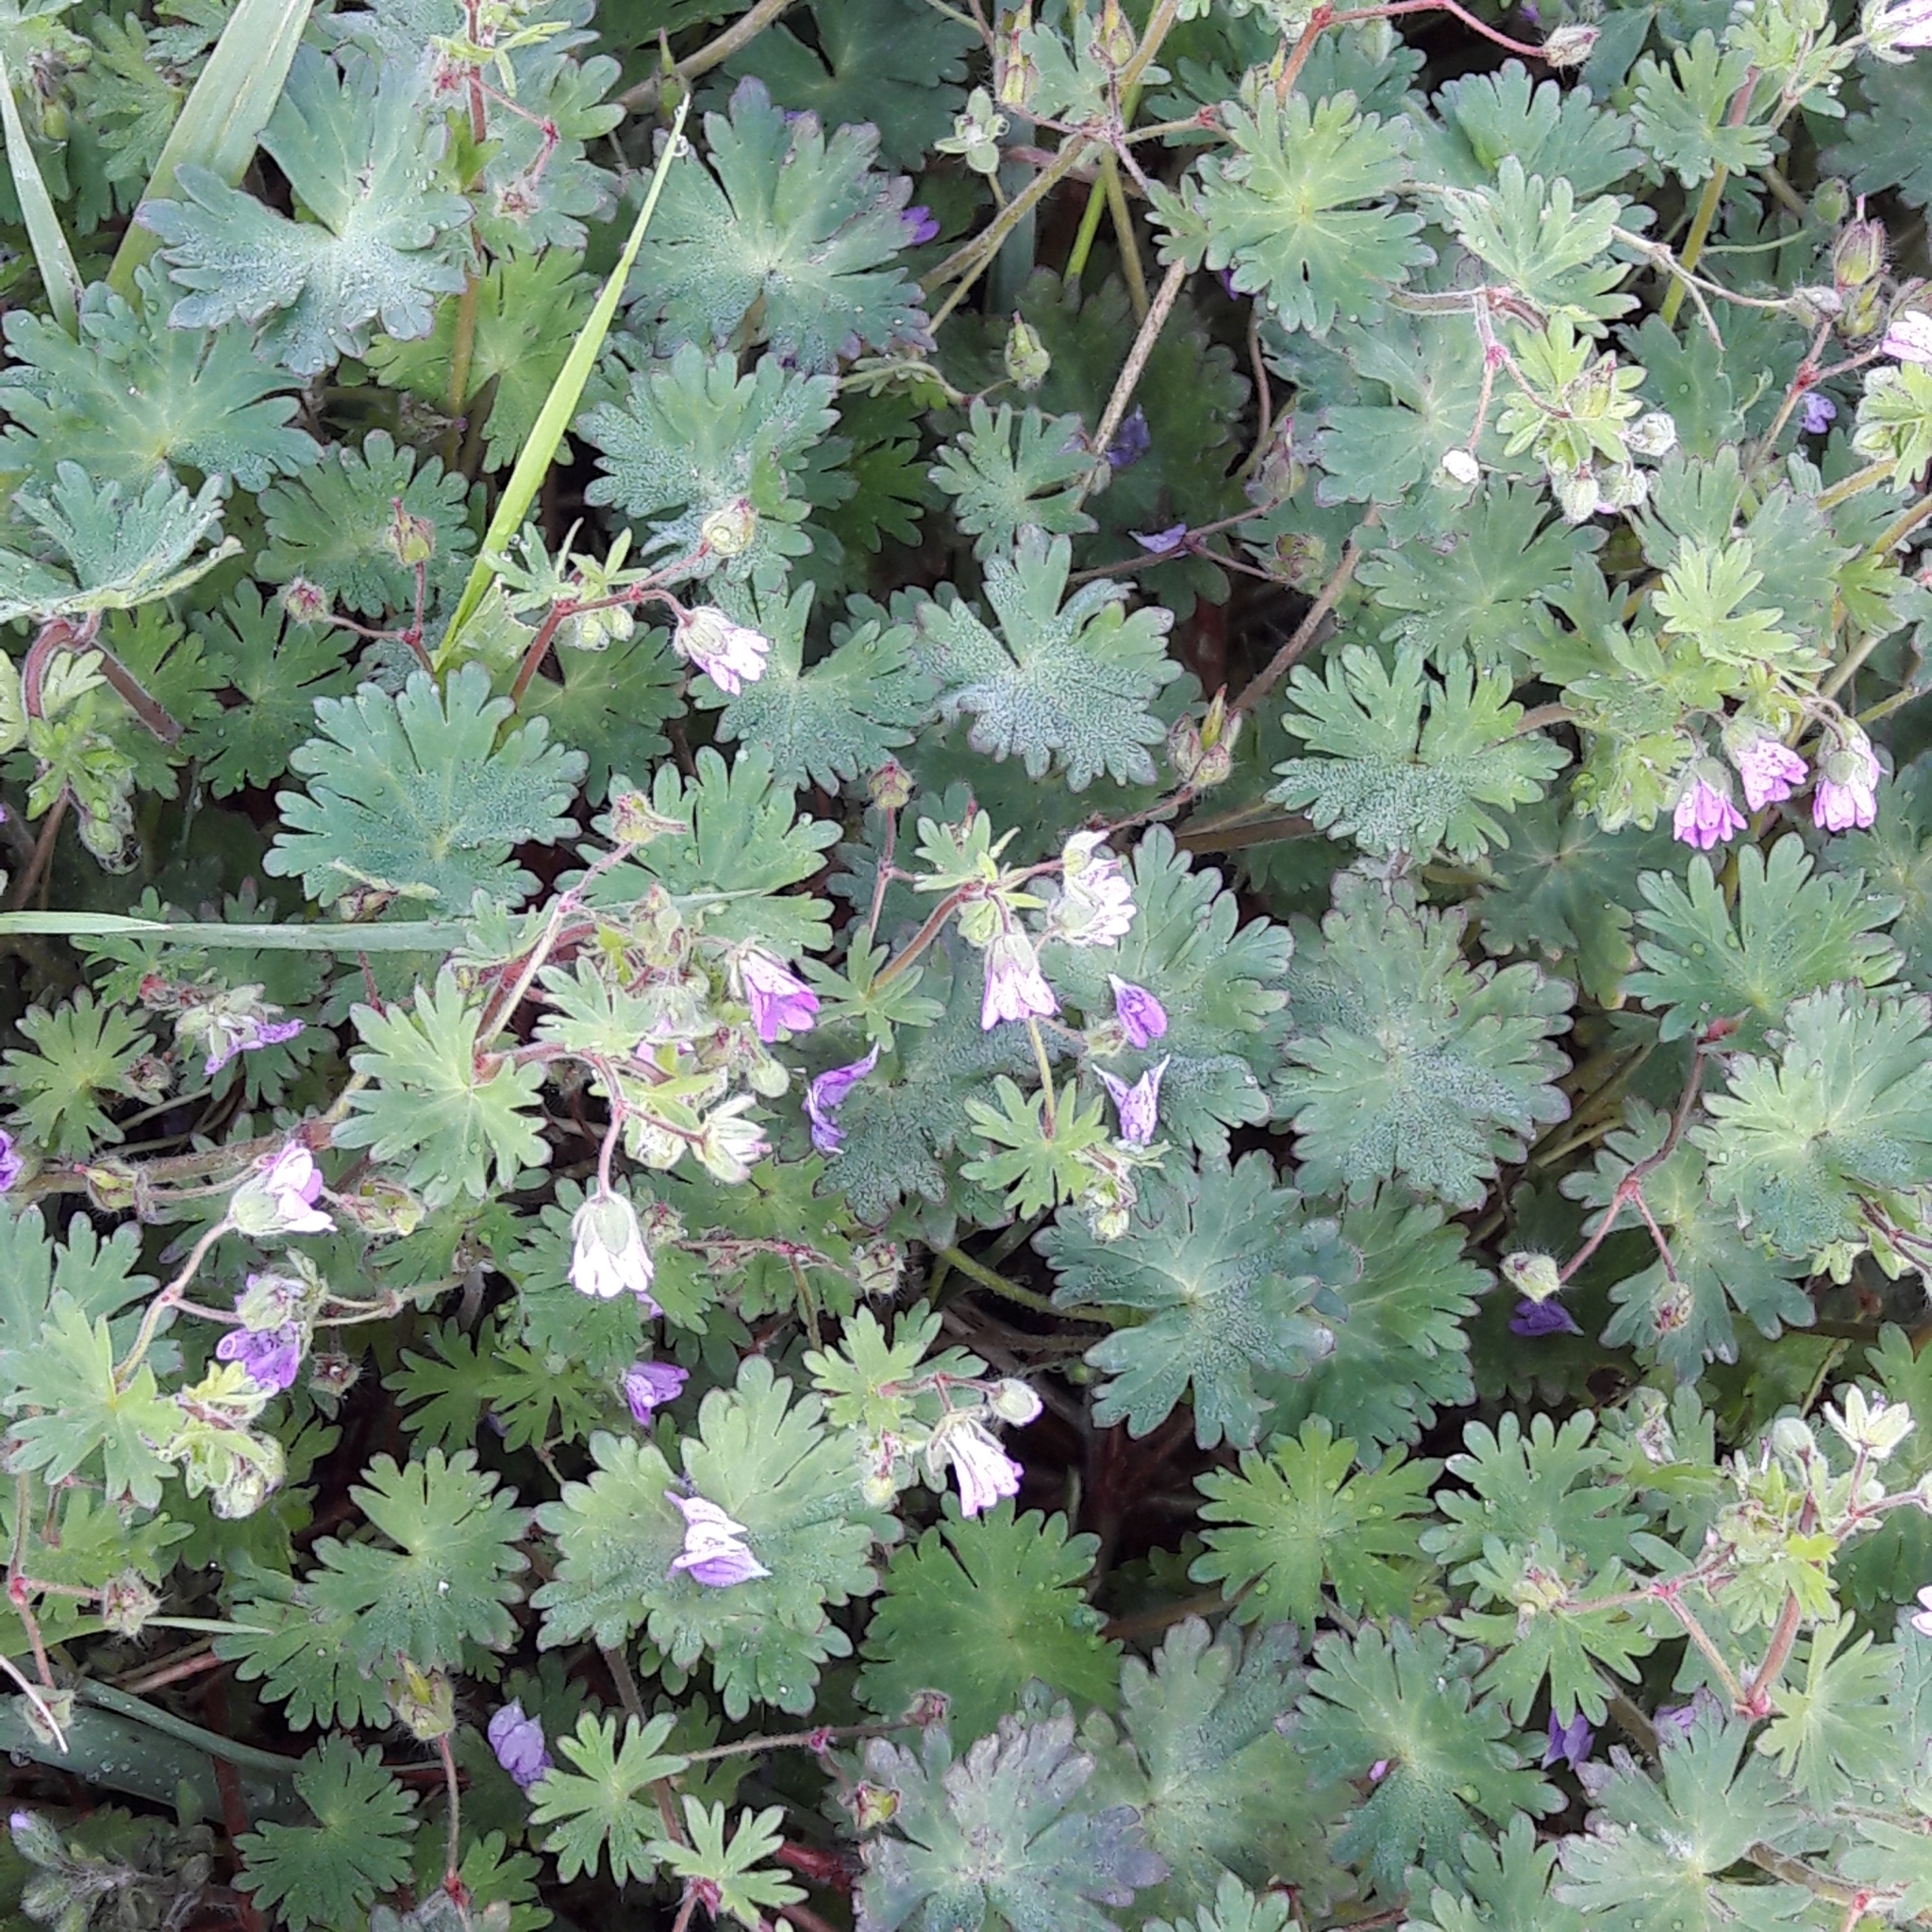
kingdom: Plantae
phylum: Tracheophyta
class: Magnoliopsida
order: Geraniales
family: Geraniaceae
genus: Geranium
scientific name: Geranium molle
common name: Dove's-foot crane's-bill
